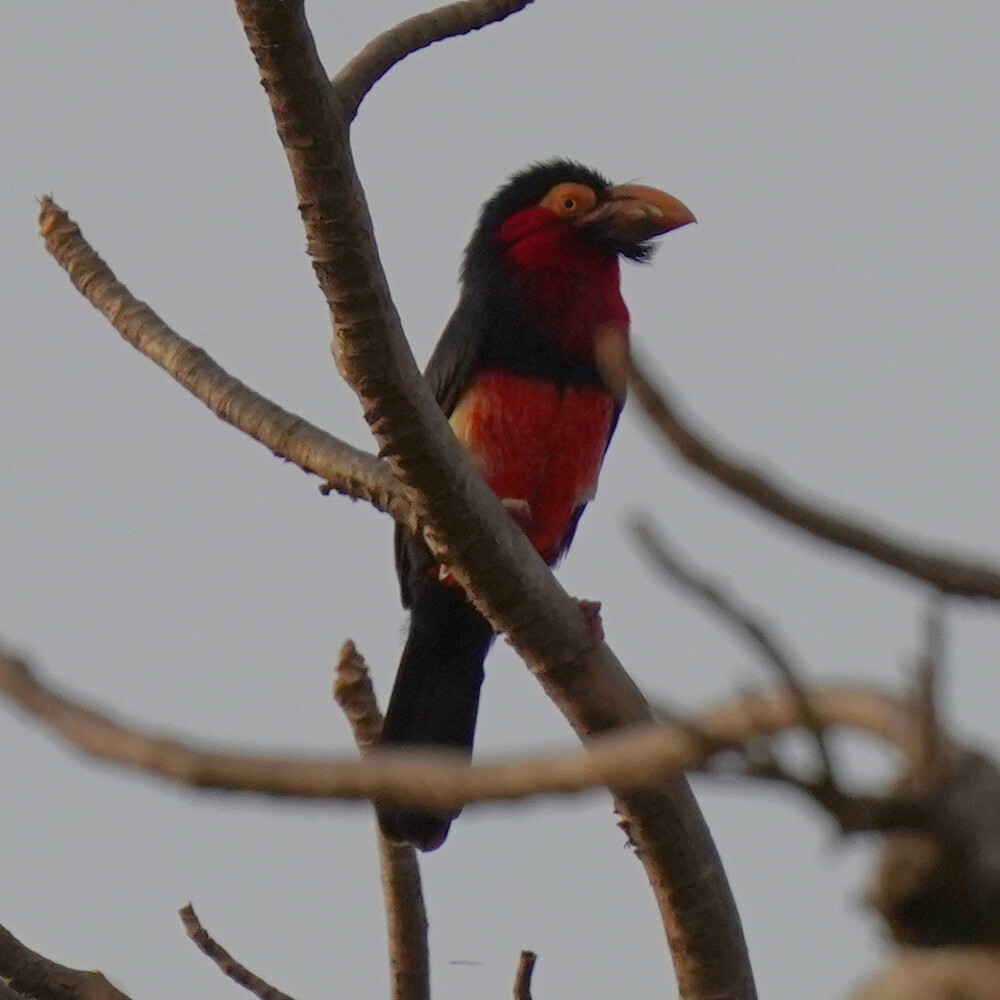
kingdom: Animalia
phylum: Chordata
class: Aves
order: Piciformes
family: Lybiidae
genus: Lybius
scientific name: Lybius dubius
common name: Bearded barbet
